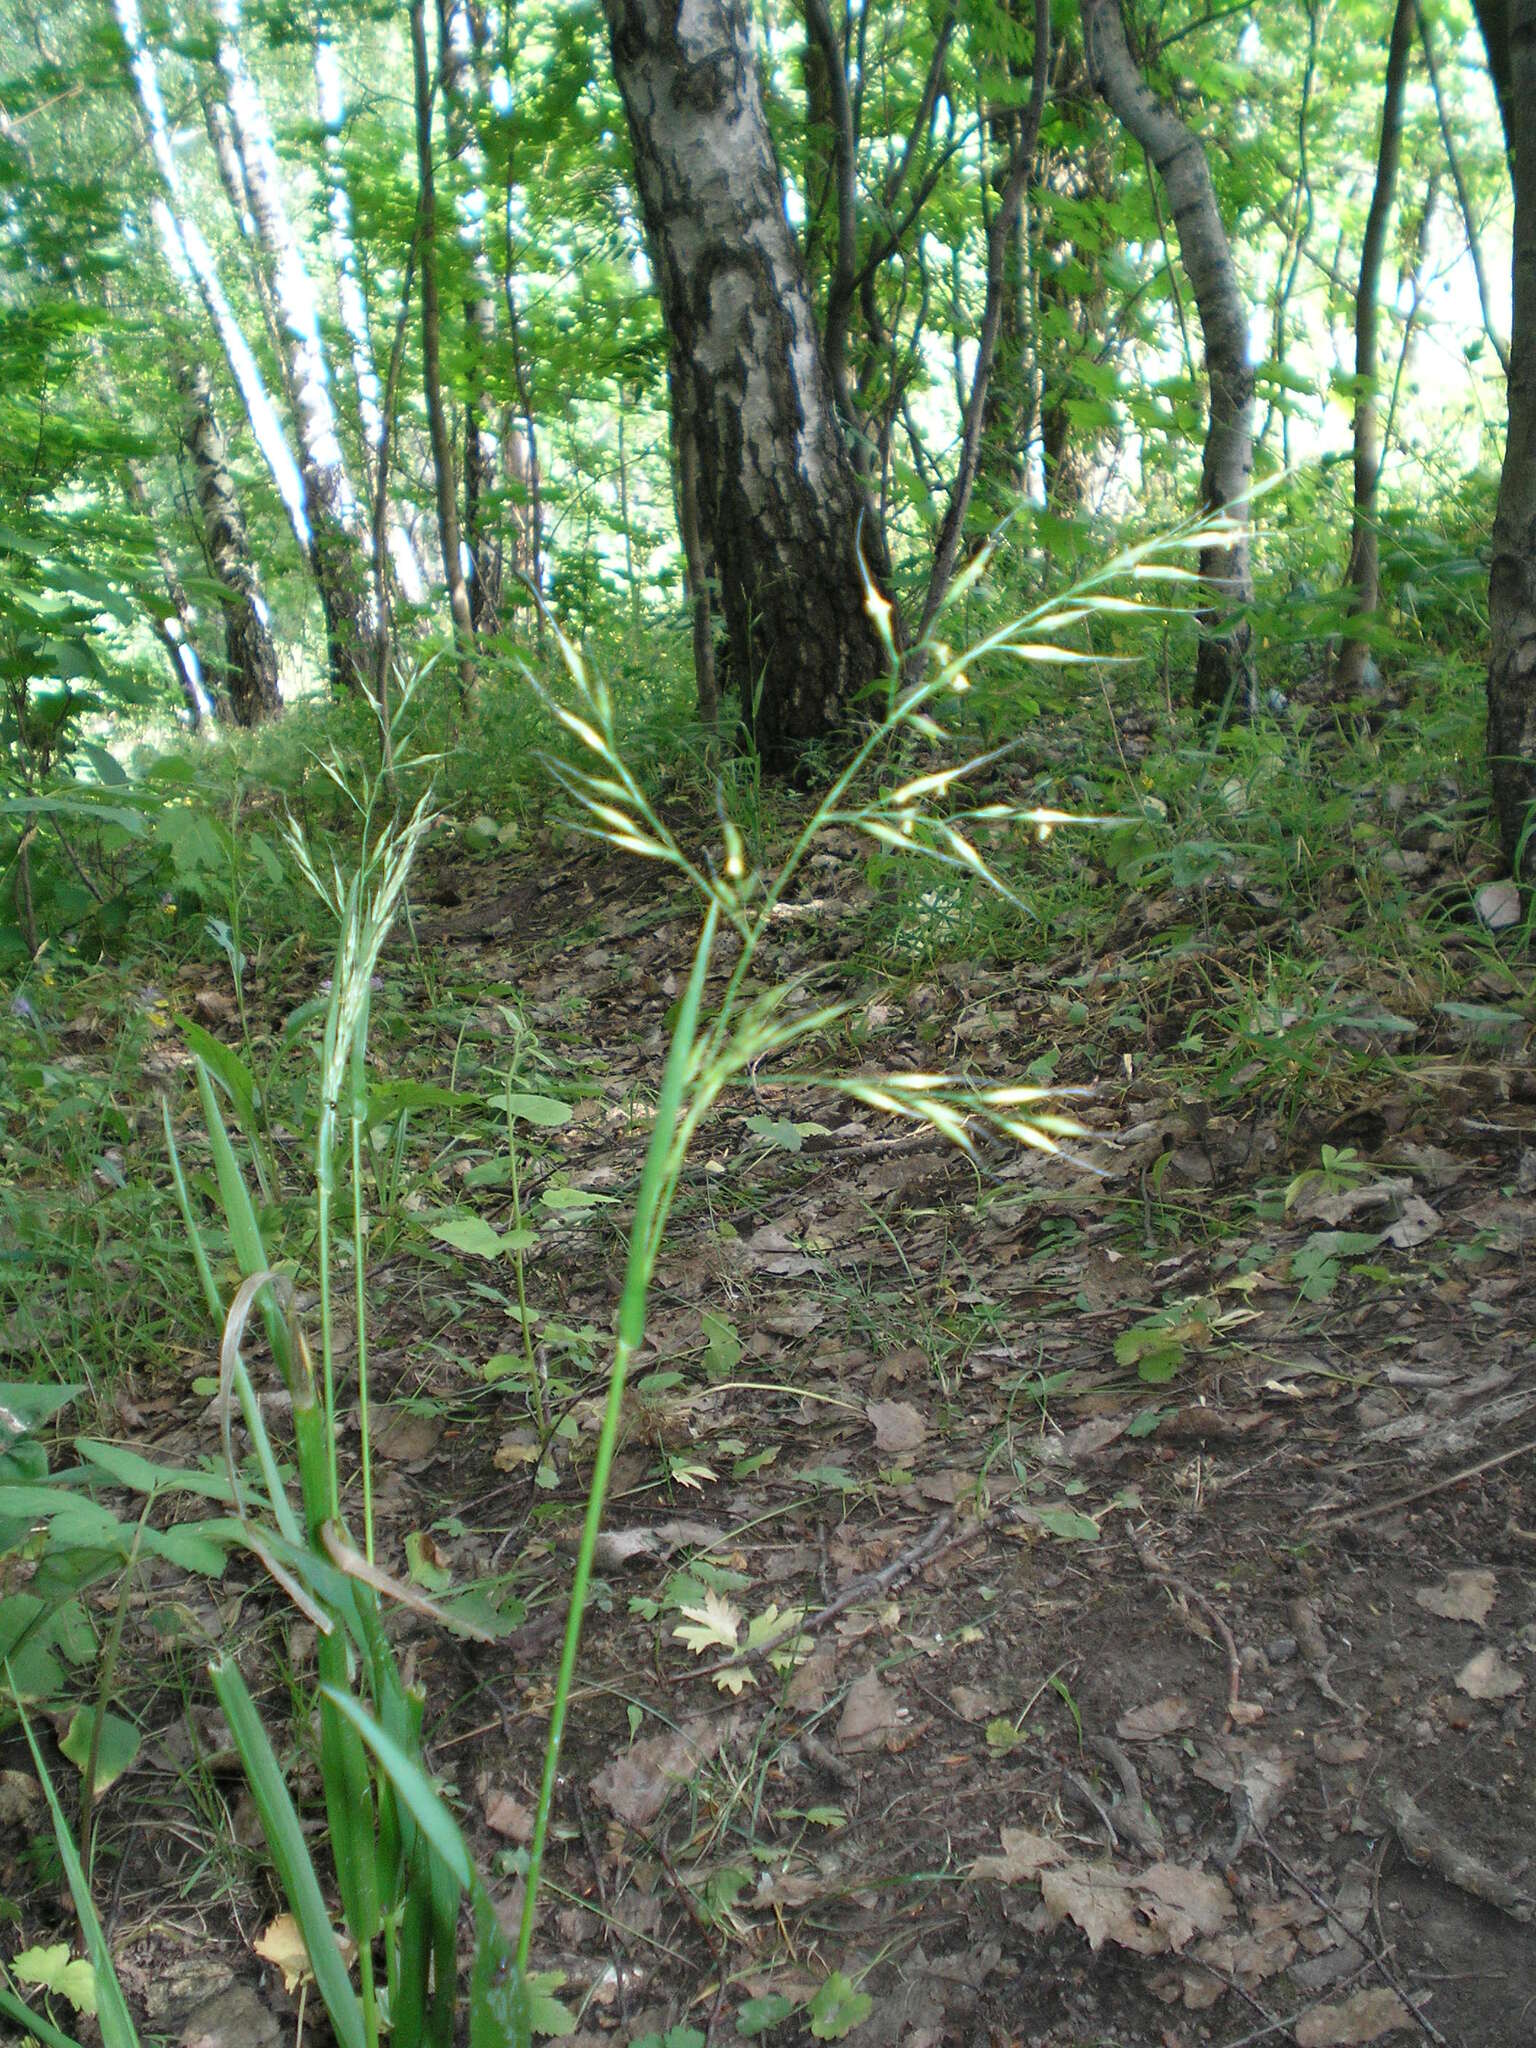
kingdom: Plantae
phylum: Tracheophyta
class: Liliopsida
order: Poales
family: Poaceae
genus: Lolium
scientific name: Lolium giganteum
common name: Giant fescue
